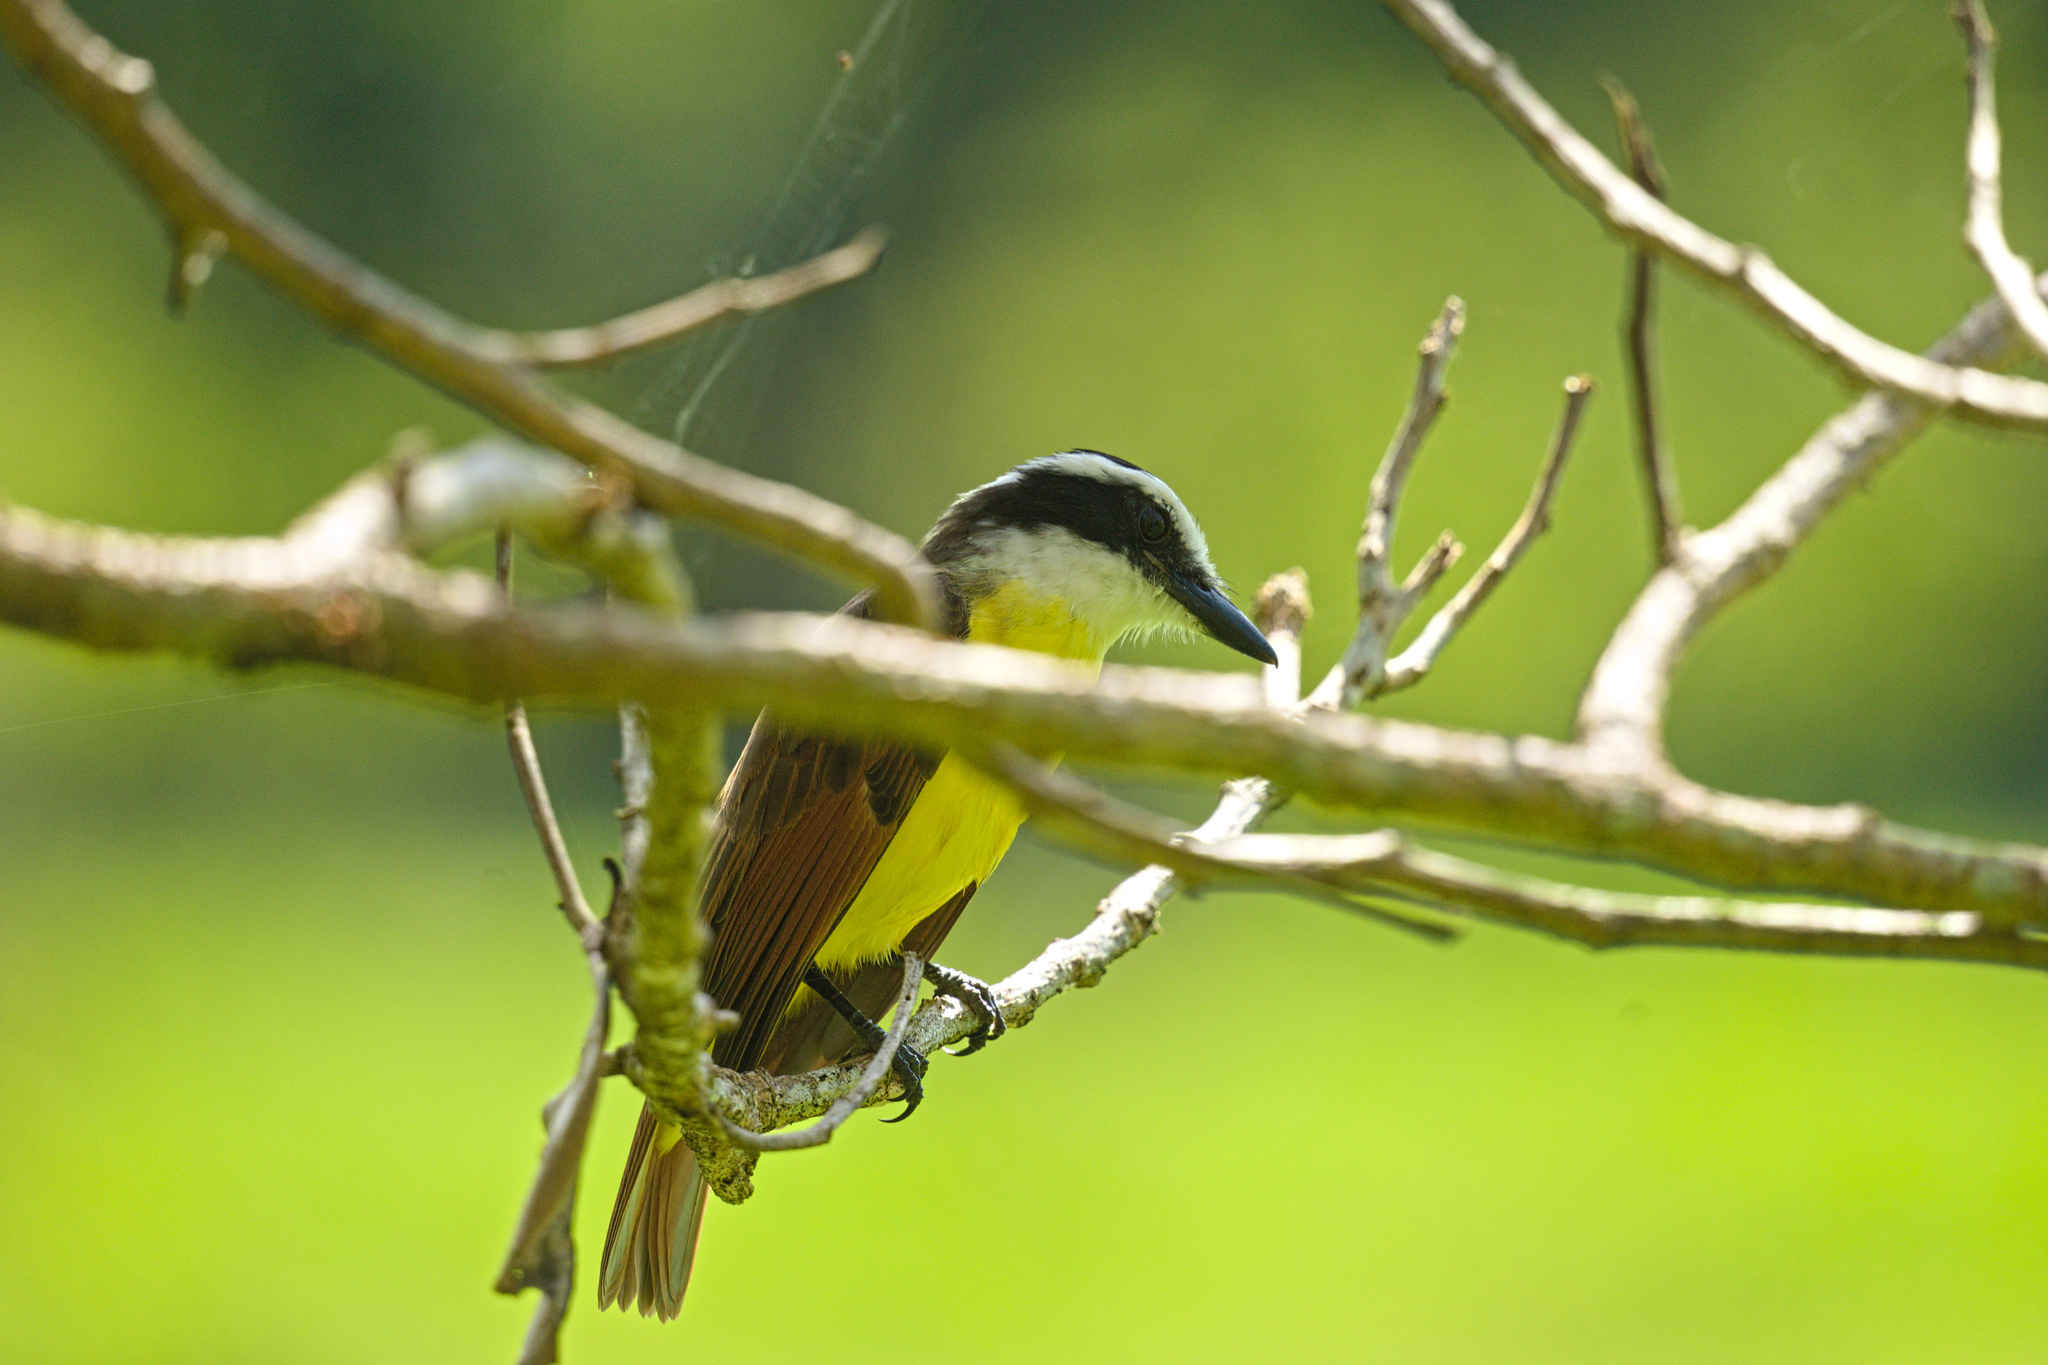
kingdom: Animalia
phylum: Chordata
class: Aves
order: Passeriformes
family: Tyrannidae
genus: Pitangus
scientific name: Pitangus sulphuratus
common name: Great kiskadee
